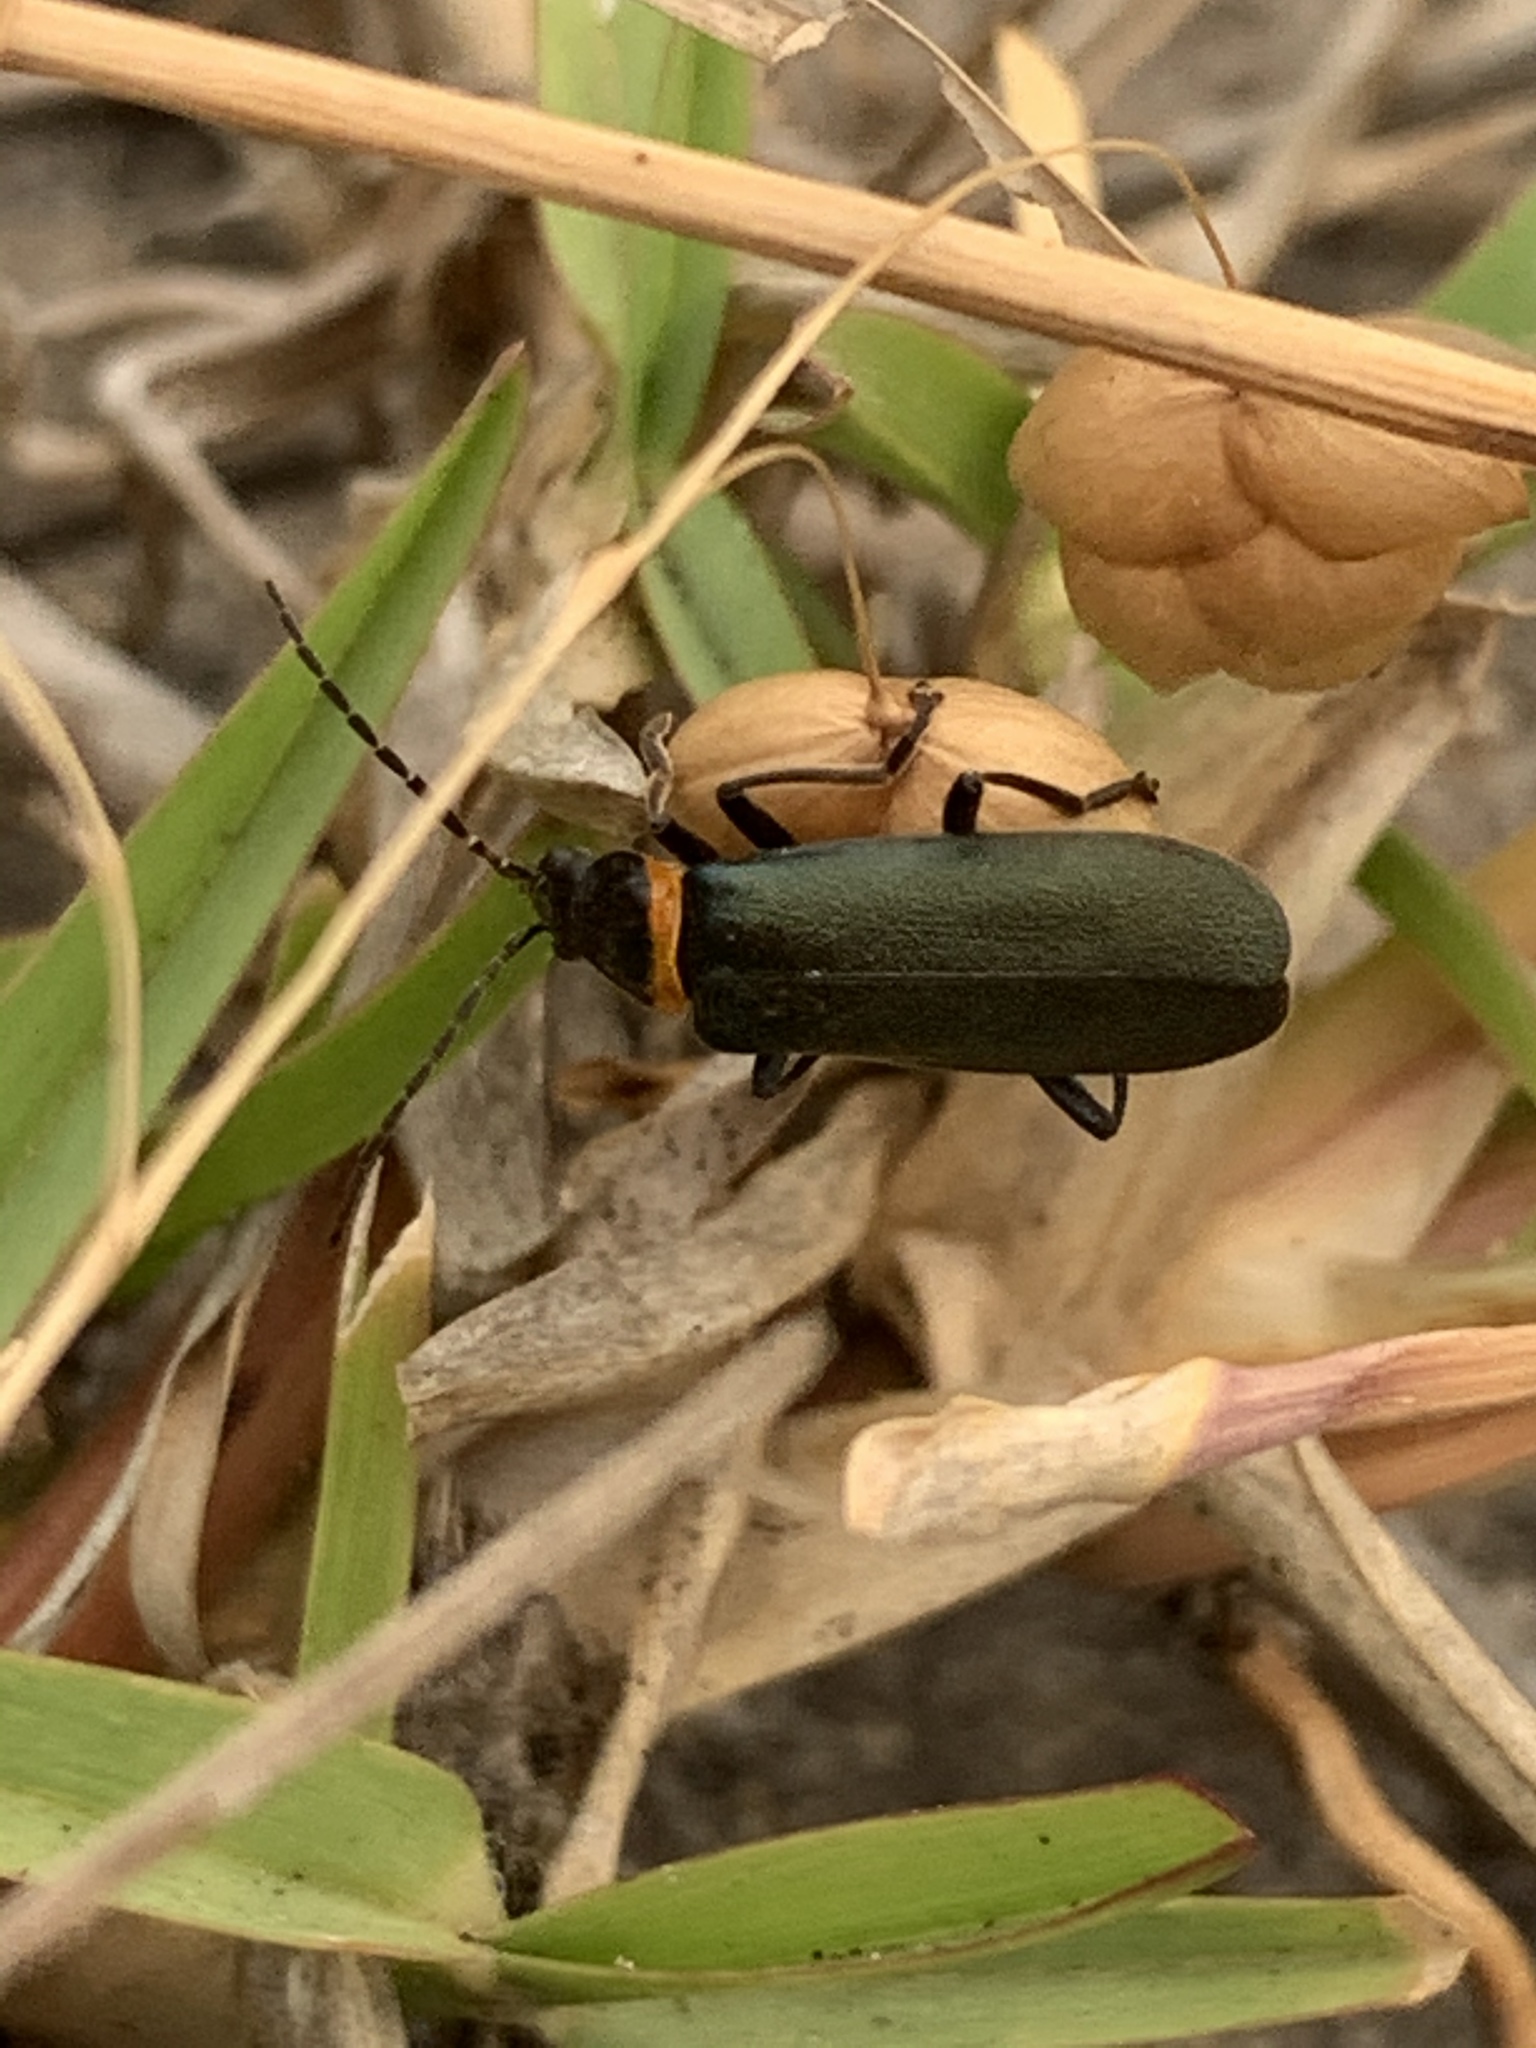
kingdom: Animalia
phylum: Arthropoda
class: Insecta
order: Coleoptera
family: Cantharidae
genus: Chauliognathus
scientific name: Chauliognathus
